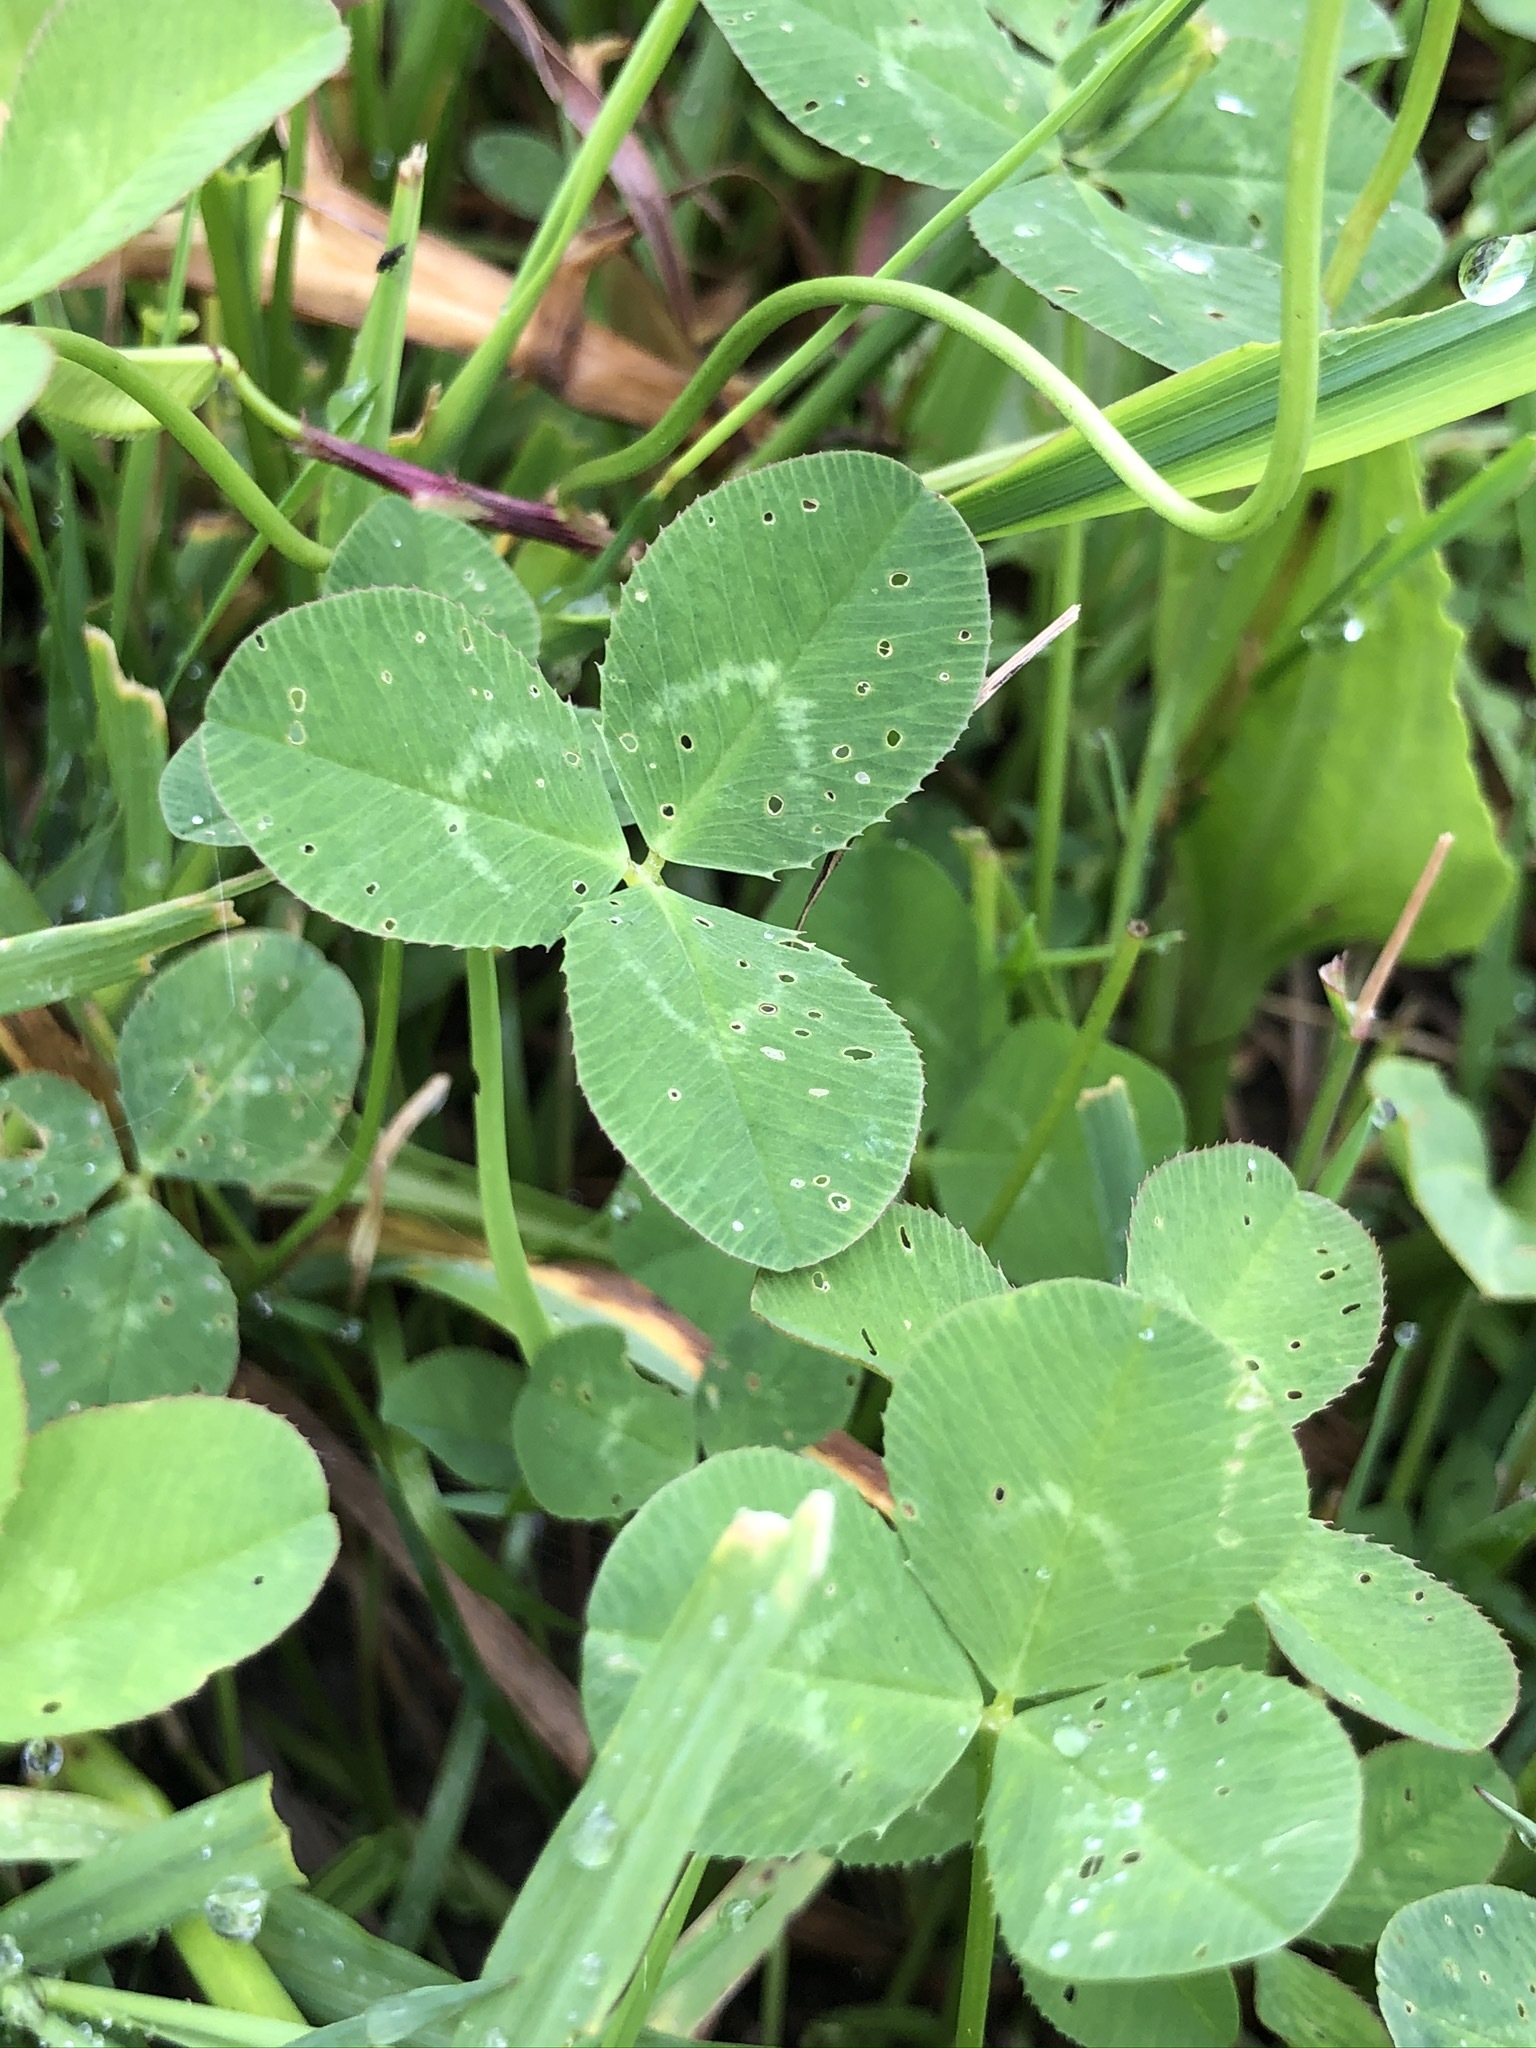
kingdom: Plantae
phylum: Tracheophyta
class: Magnoliopsida
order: Fabales
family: Fabaceae
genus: Trifolium
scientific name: Trifolium repens
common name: White clover
